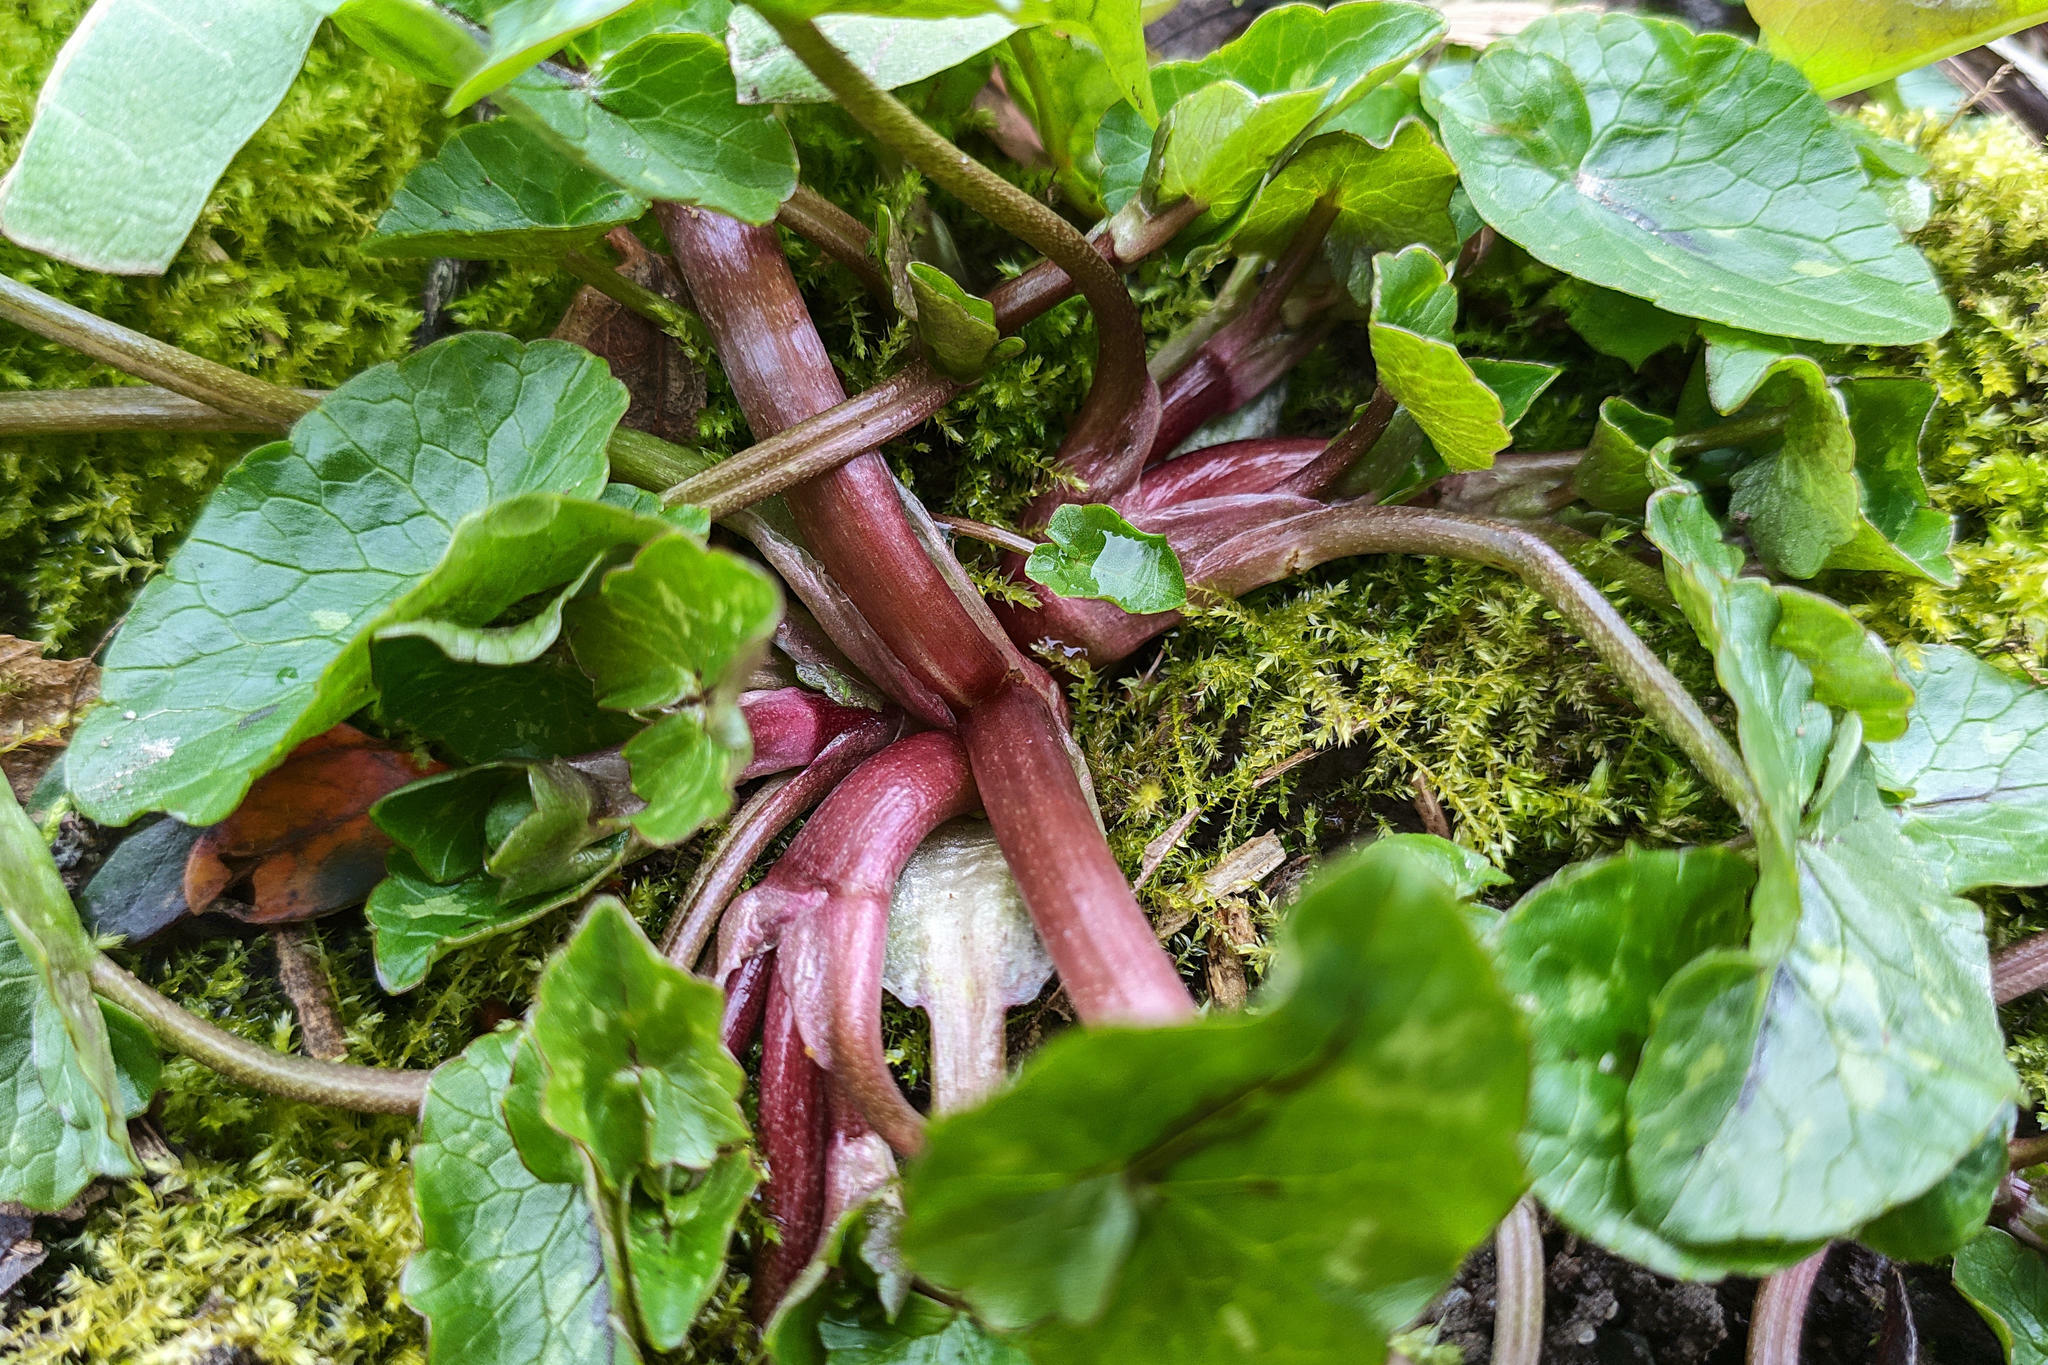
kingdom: Plantae
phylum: Tracheophyta
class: Magnoliopsida
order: Ranunculales
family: Ranunculaceae
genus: Ficaria
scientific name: Ficaria verna
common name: Lesser celandine
